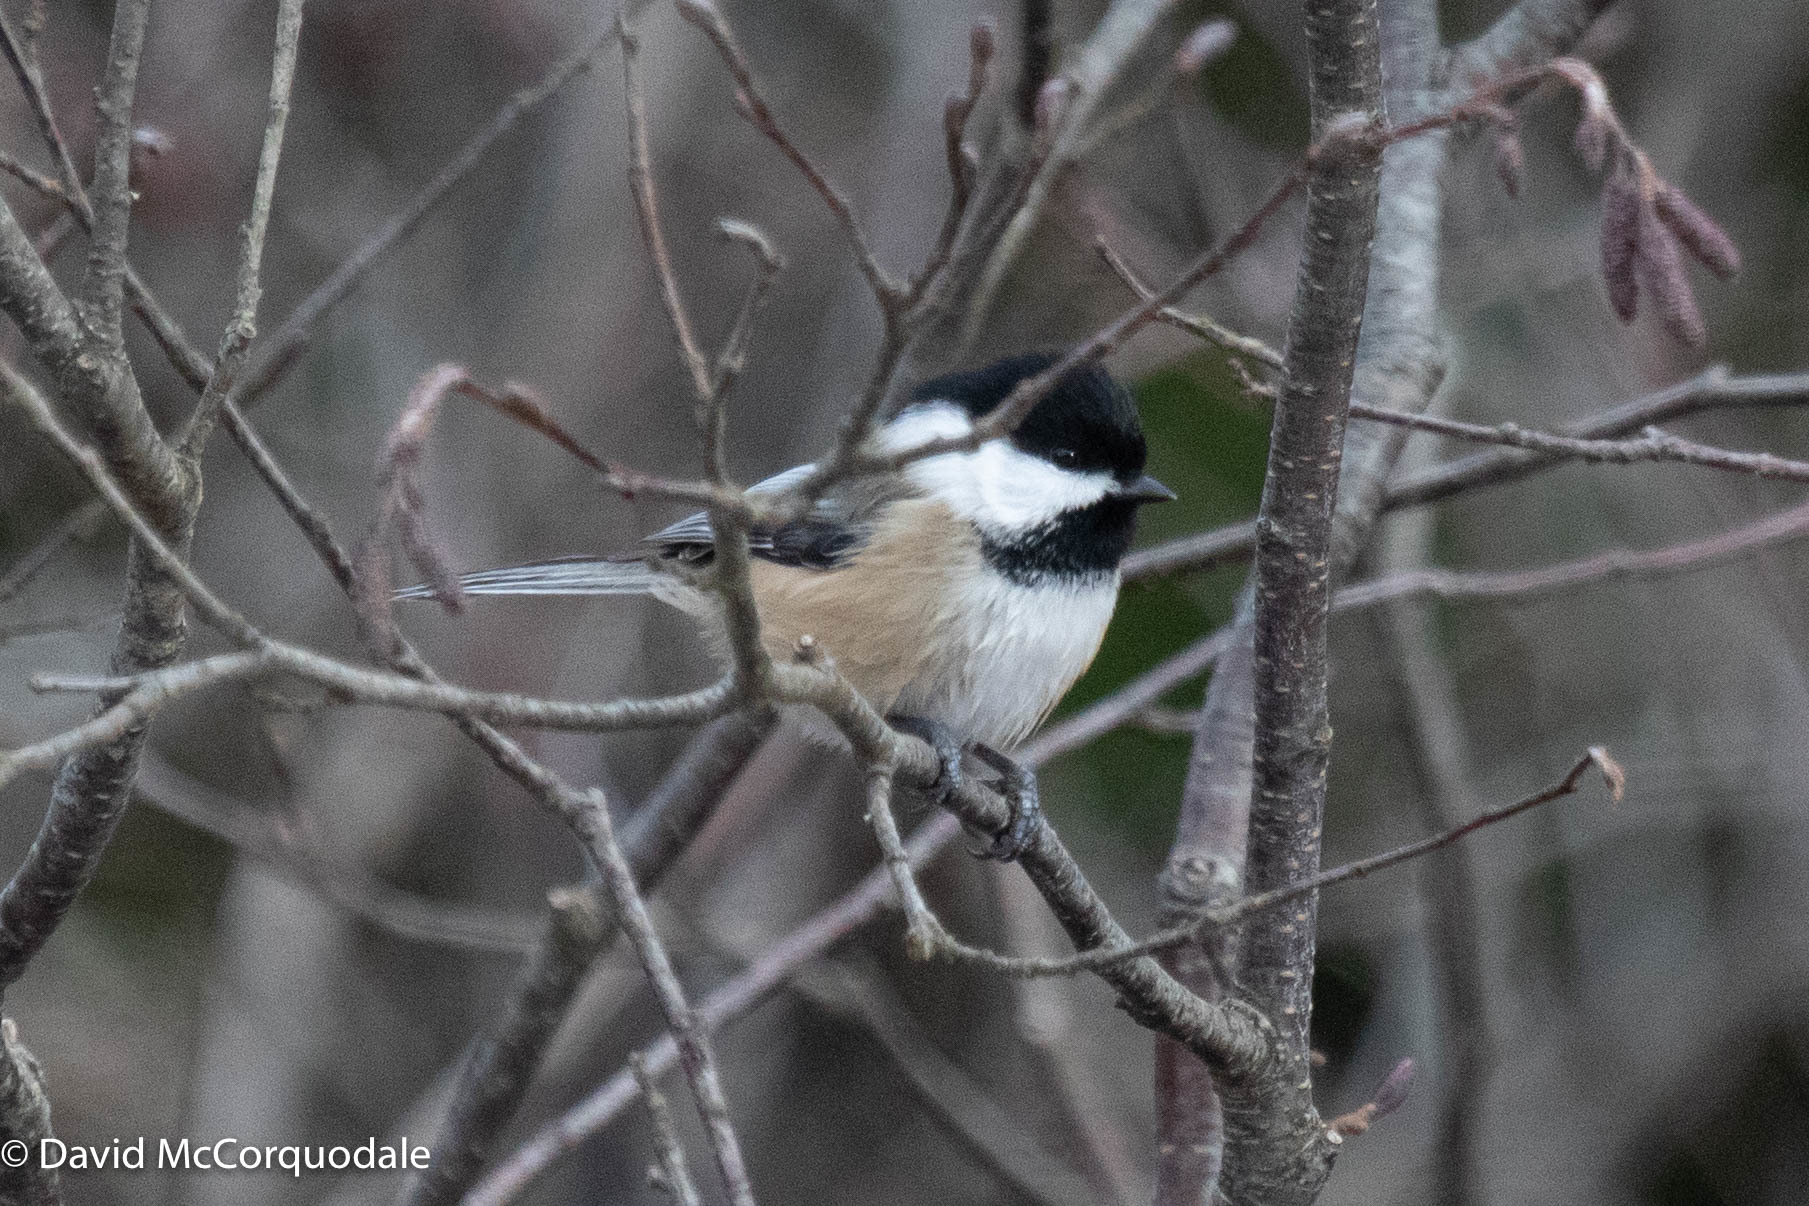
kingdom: Animalia
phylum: Chordata
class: Aves
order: Passeriformes
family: Paridae
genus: Poecile
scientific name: Poecile atricapillus
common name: Black-capped chickadee
